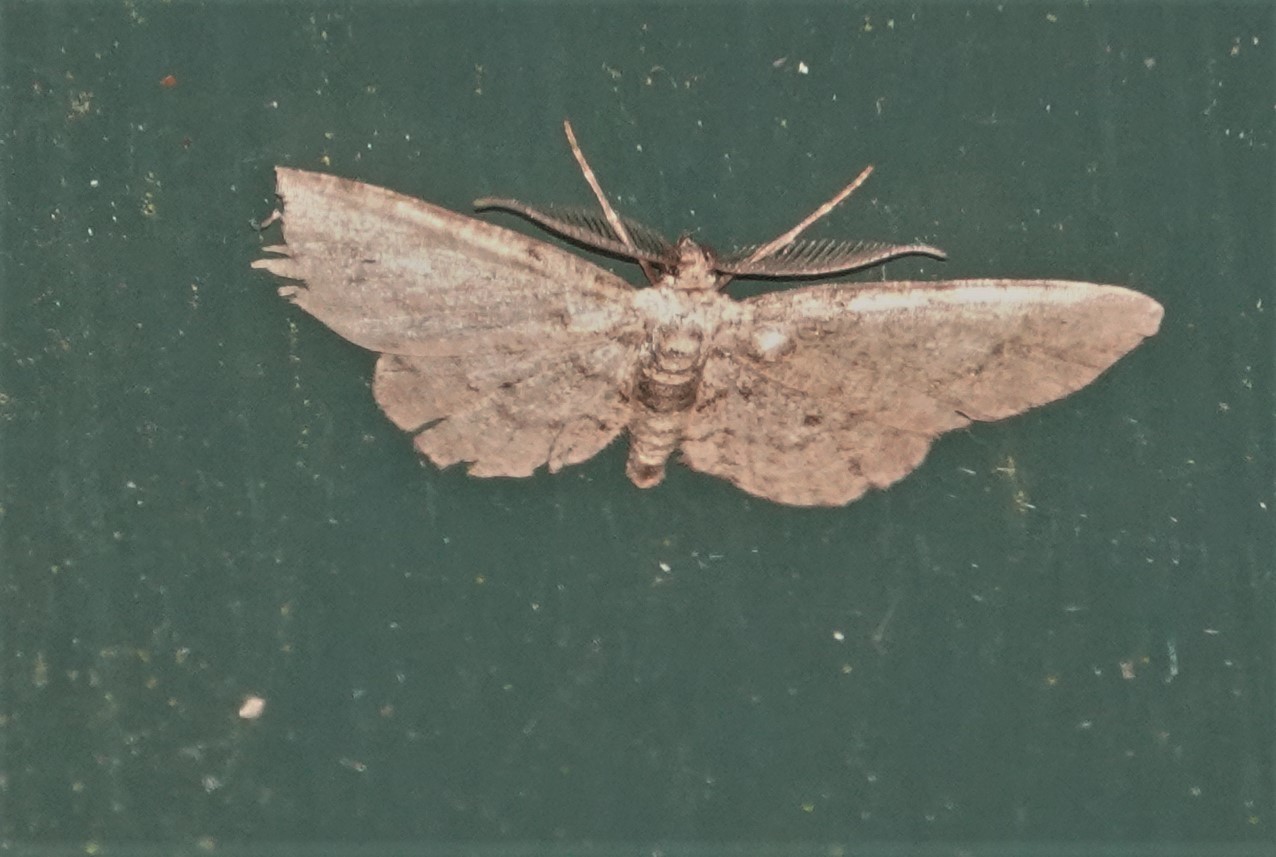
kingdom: Animalia
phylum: Arthropoda
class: Insecta
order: Lepidoptera
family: Geometridae
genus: Glenoides
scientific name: Glenoides texanaria
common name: Texas gray
